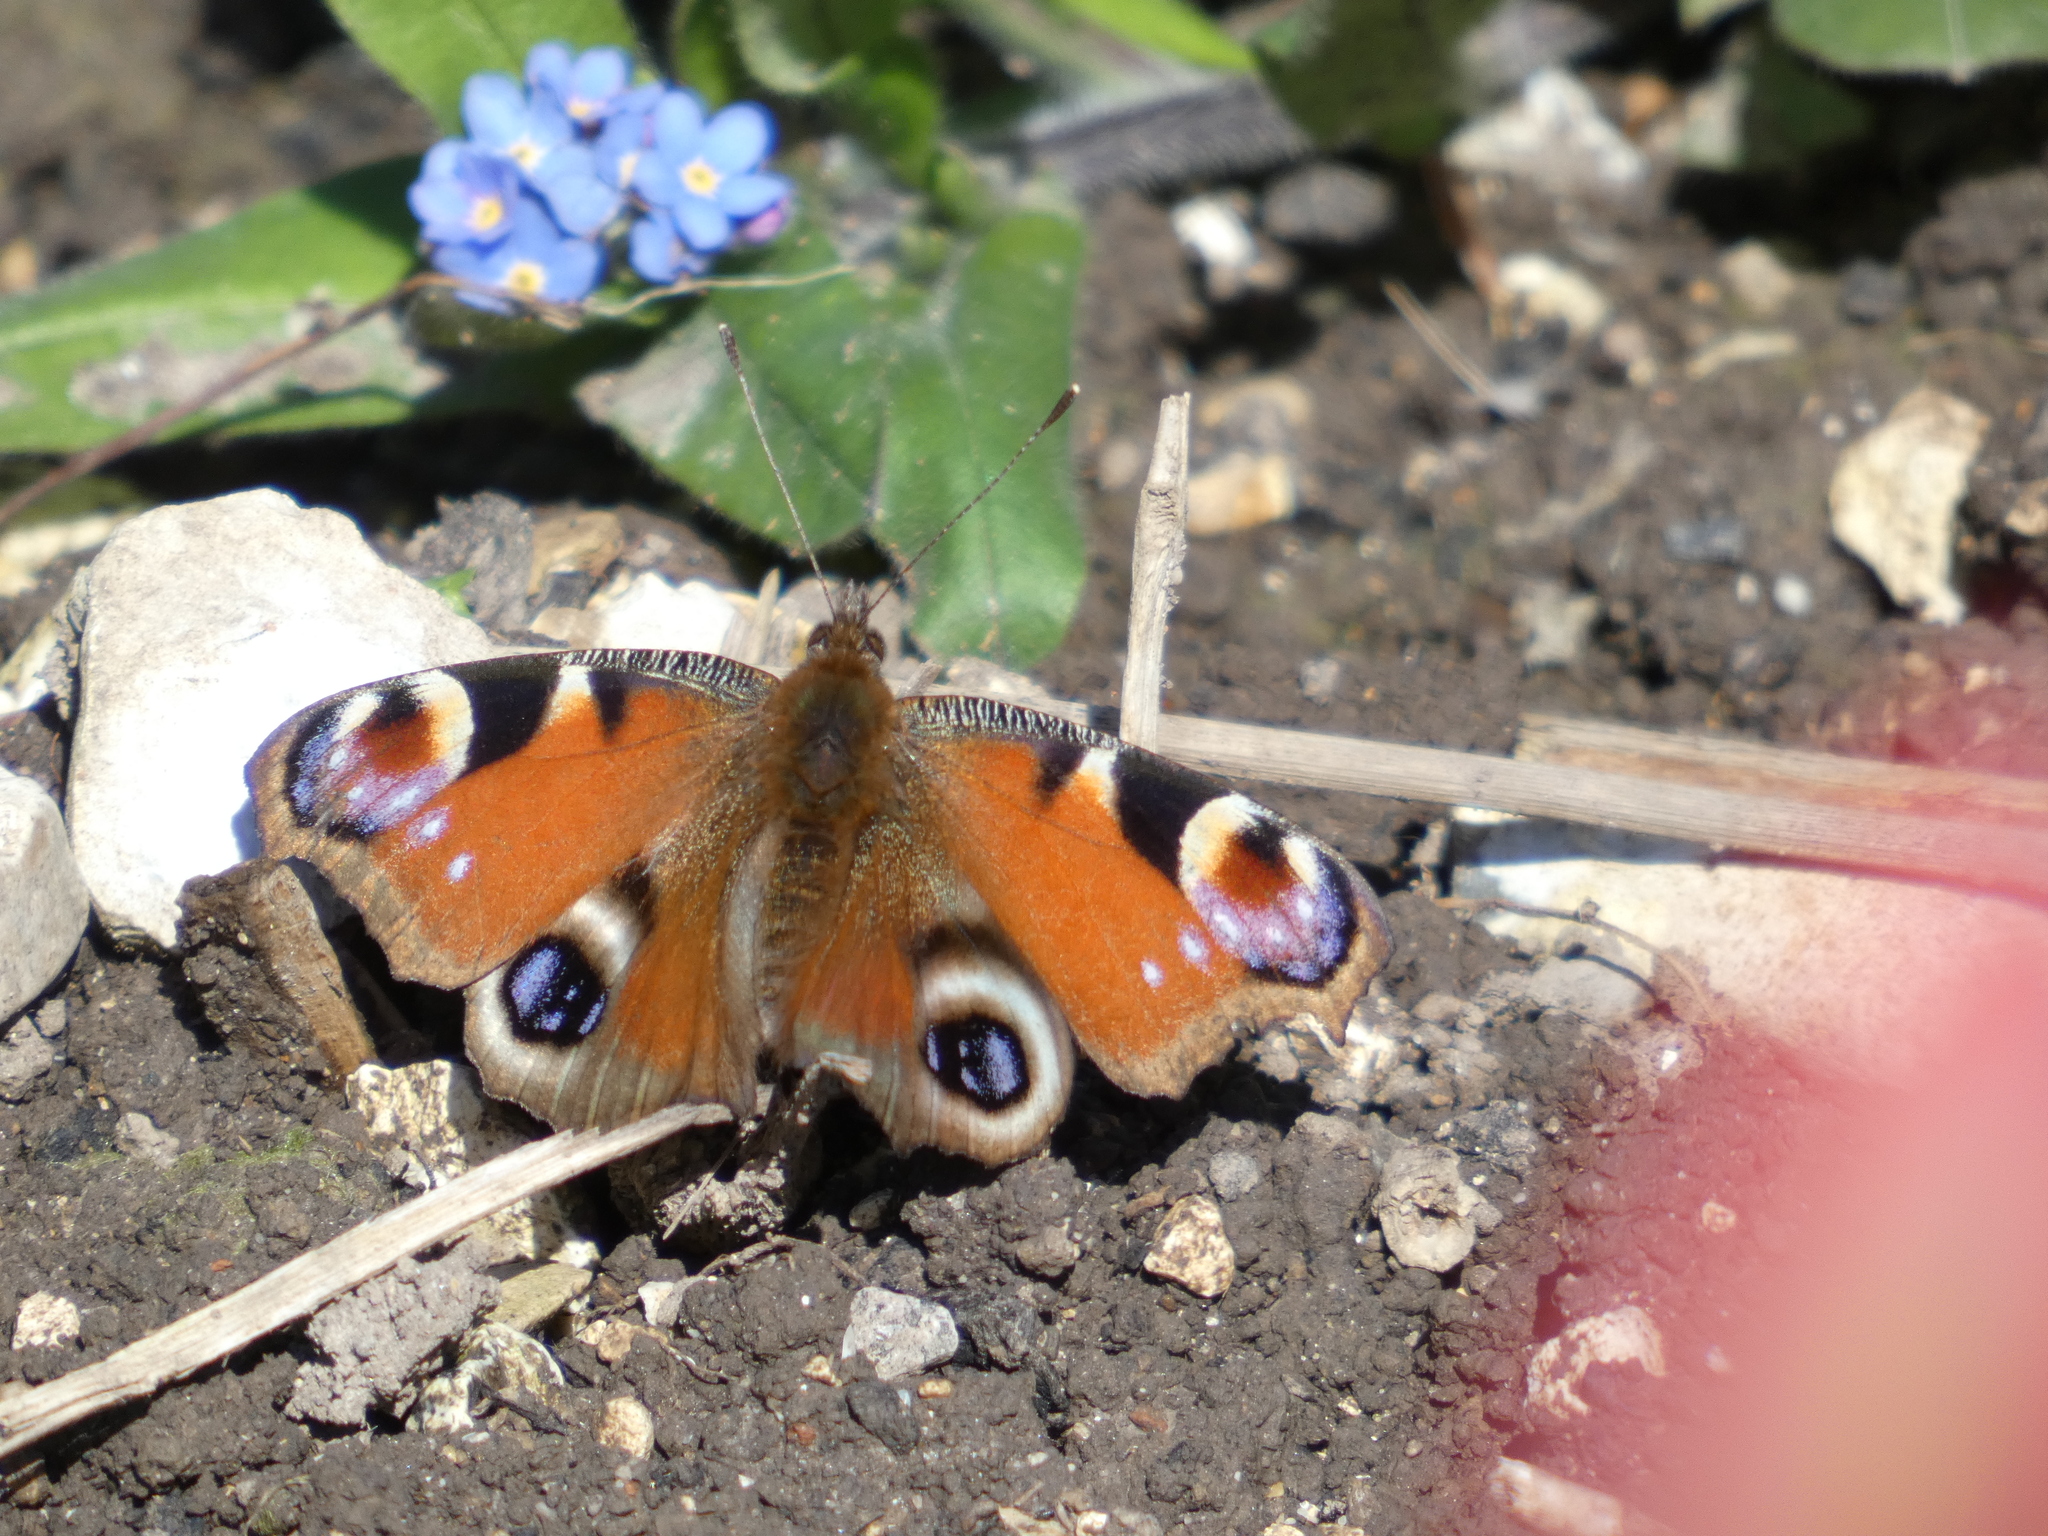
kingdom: Animalia
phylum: Arthropoda
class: Insecta
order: Lepidoptera
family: Nymphalidae
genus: Aglais
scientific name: Aglais io
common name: Peacock
